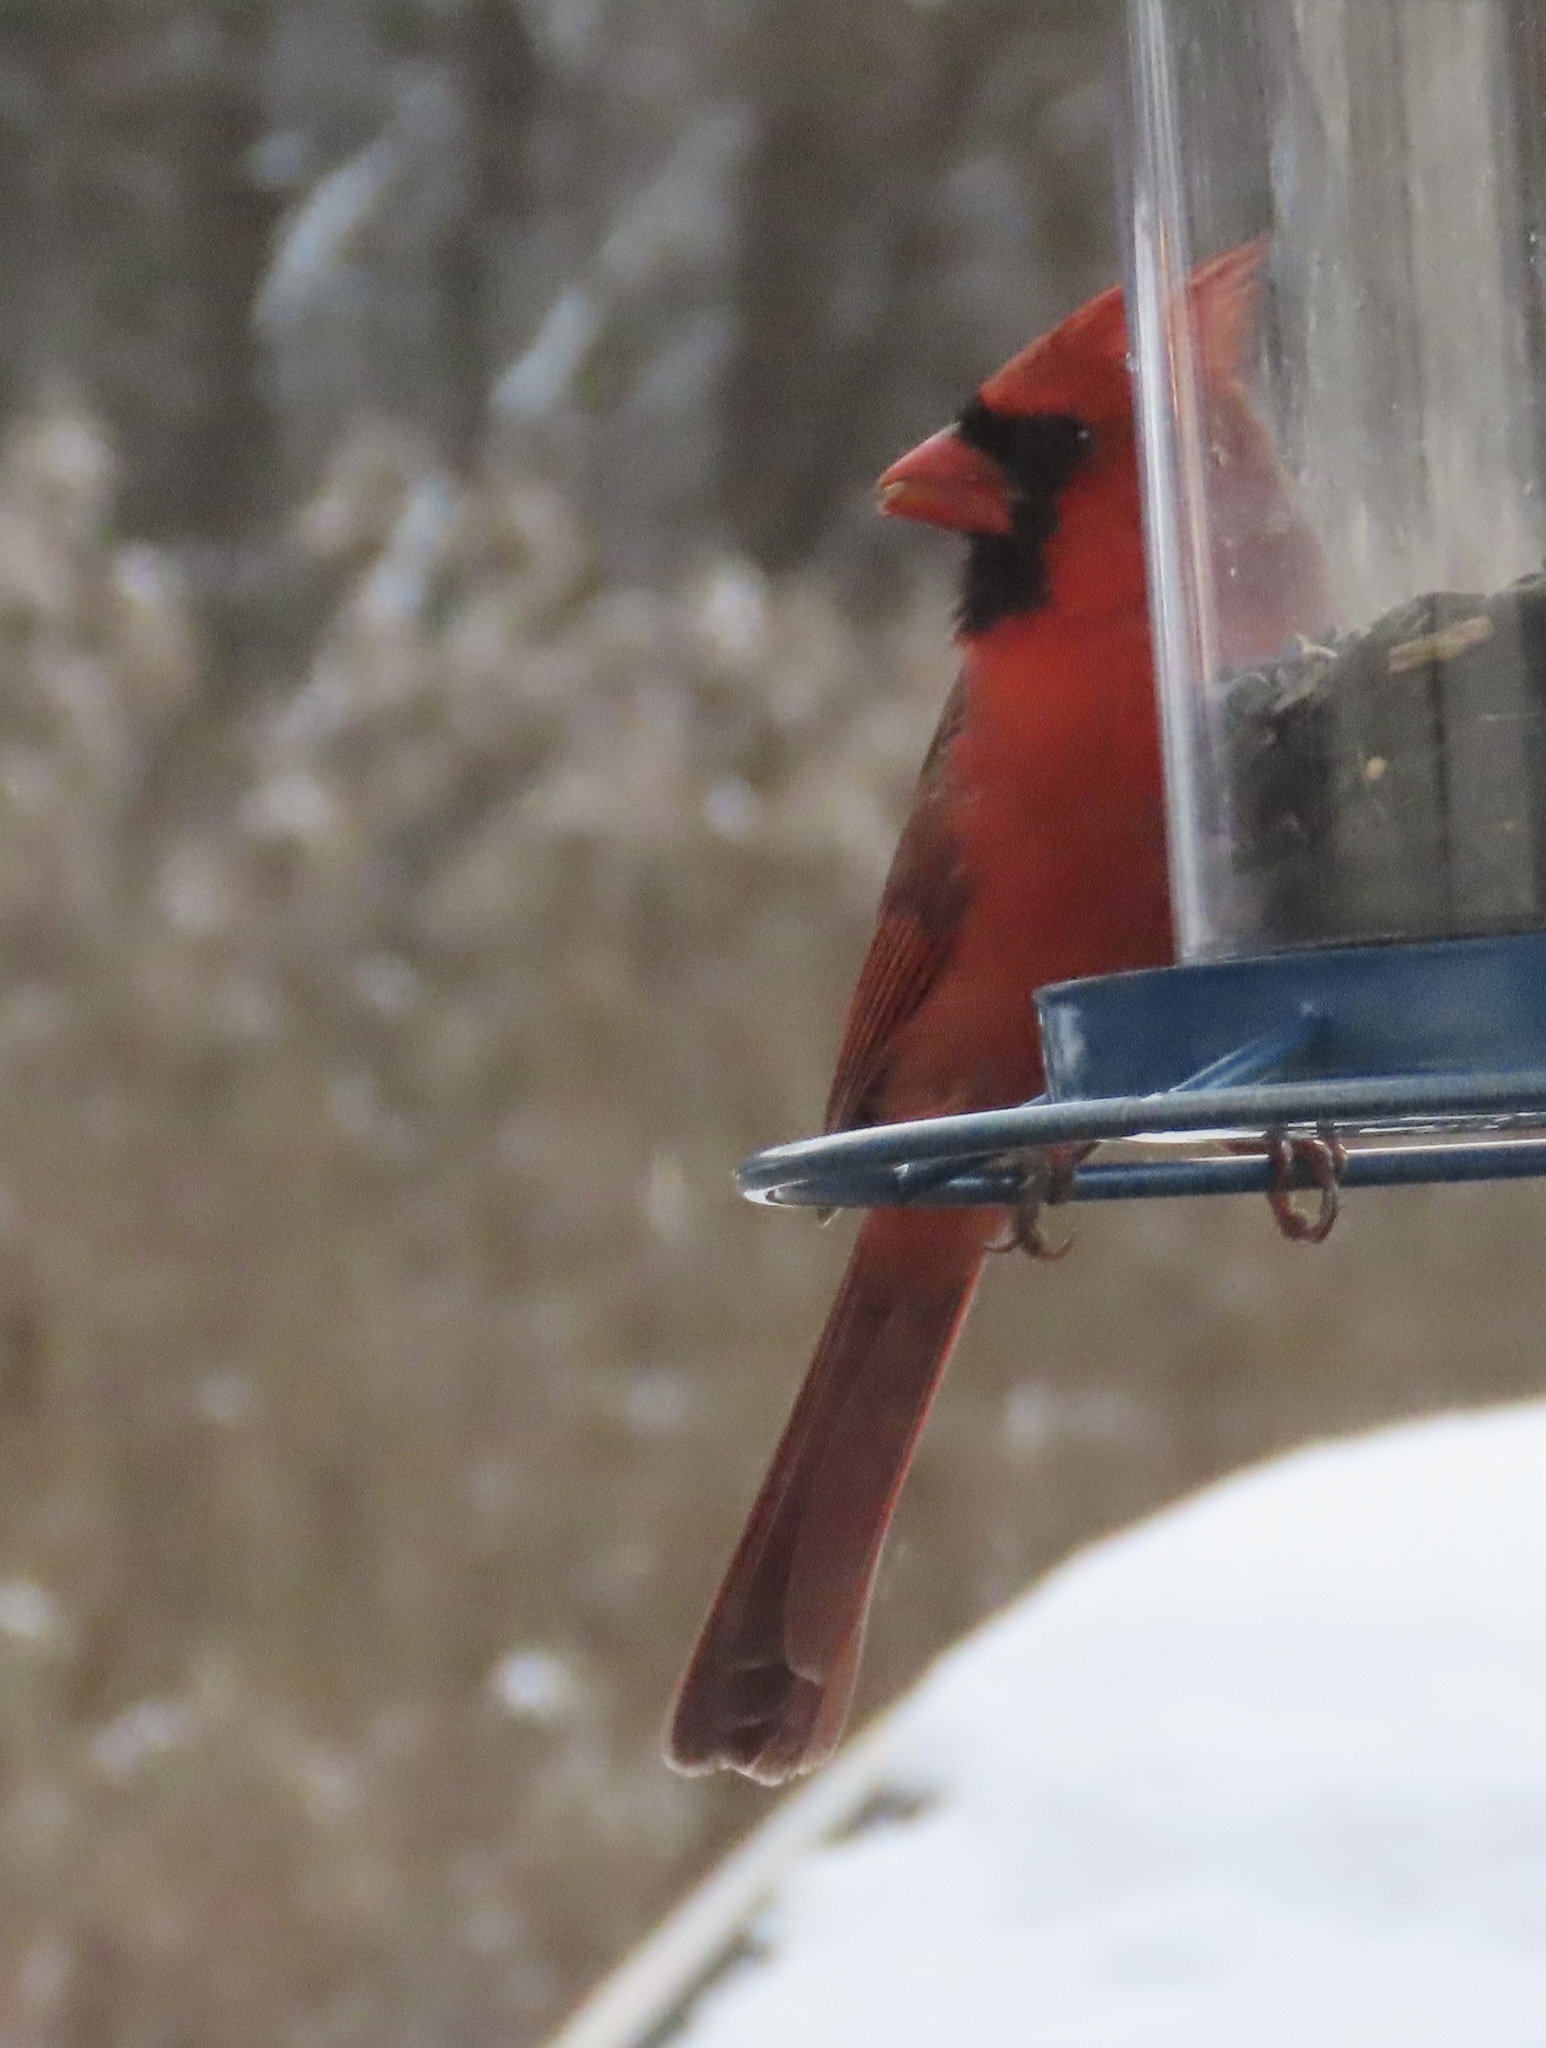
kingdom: Animalia
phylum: Chordata
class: Aves
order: Passeriformes
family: Cardinalidae
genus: Cardinalis
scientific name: Cardinalis cardinalis
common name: Northern cardinal
